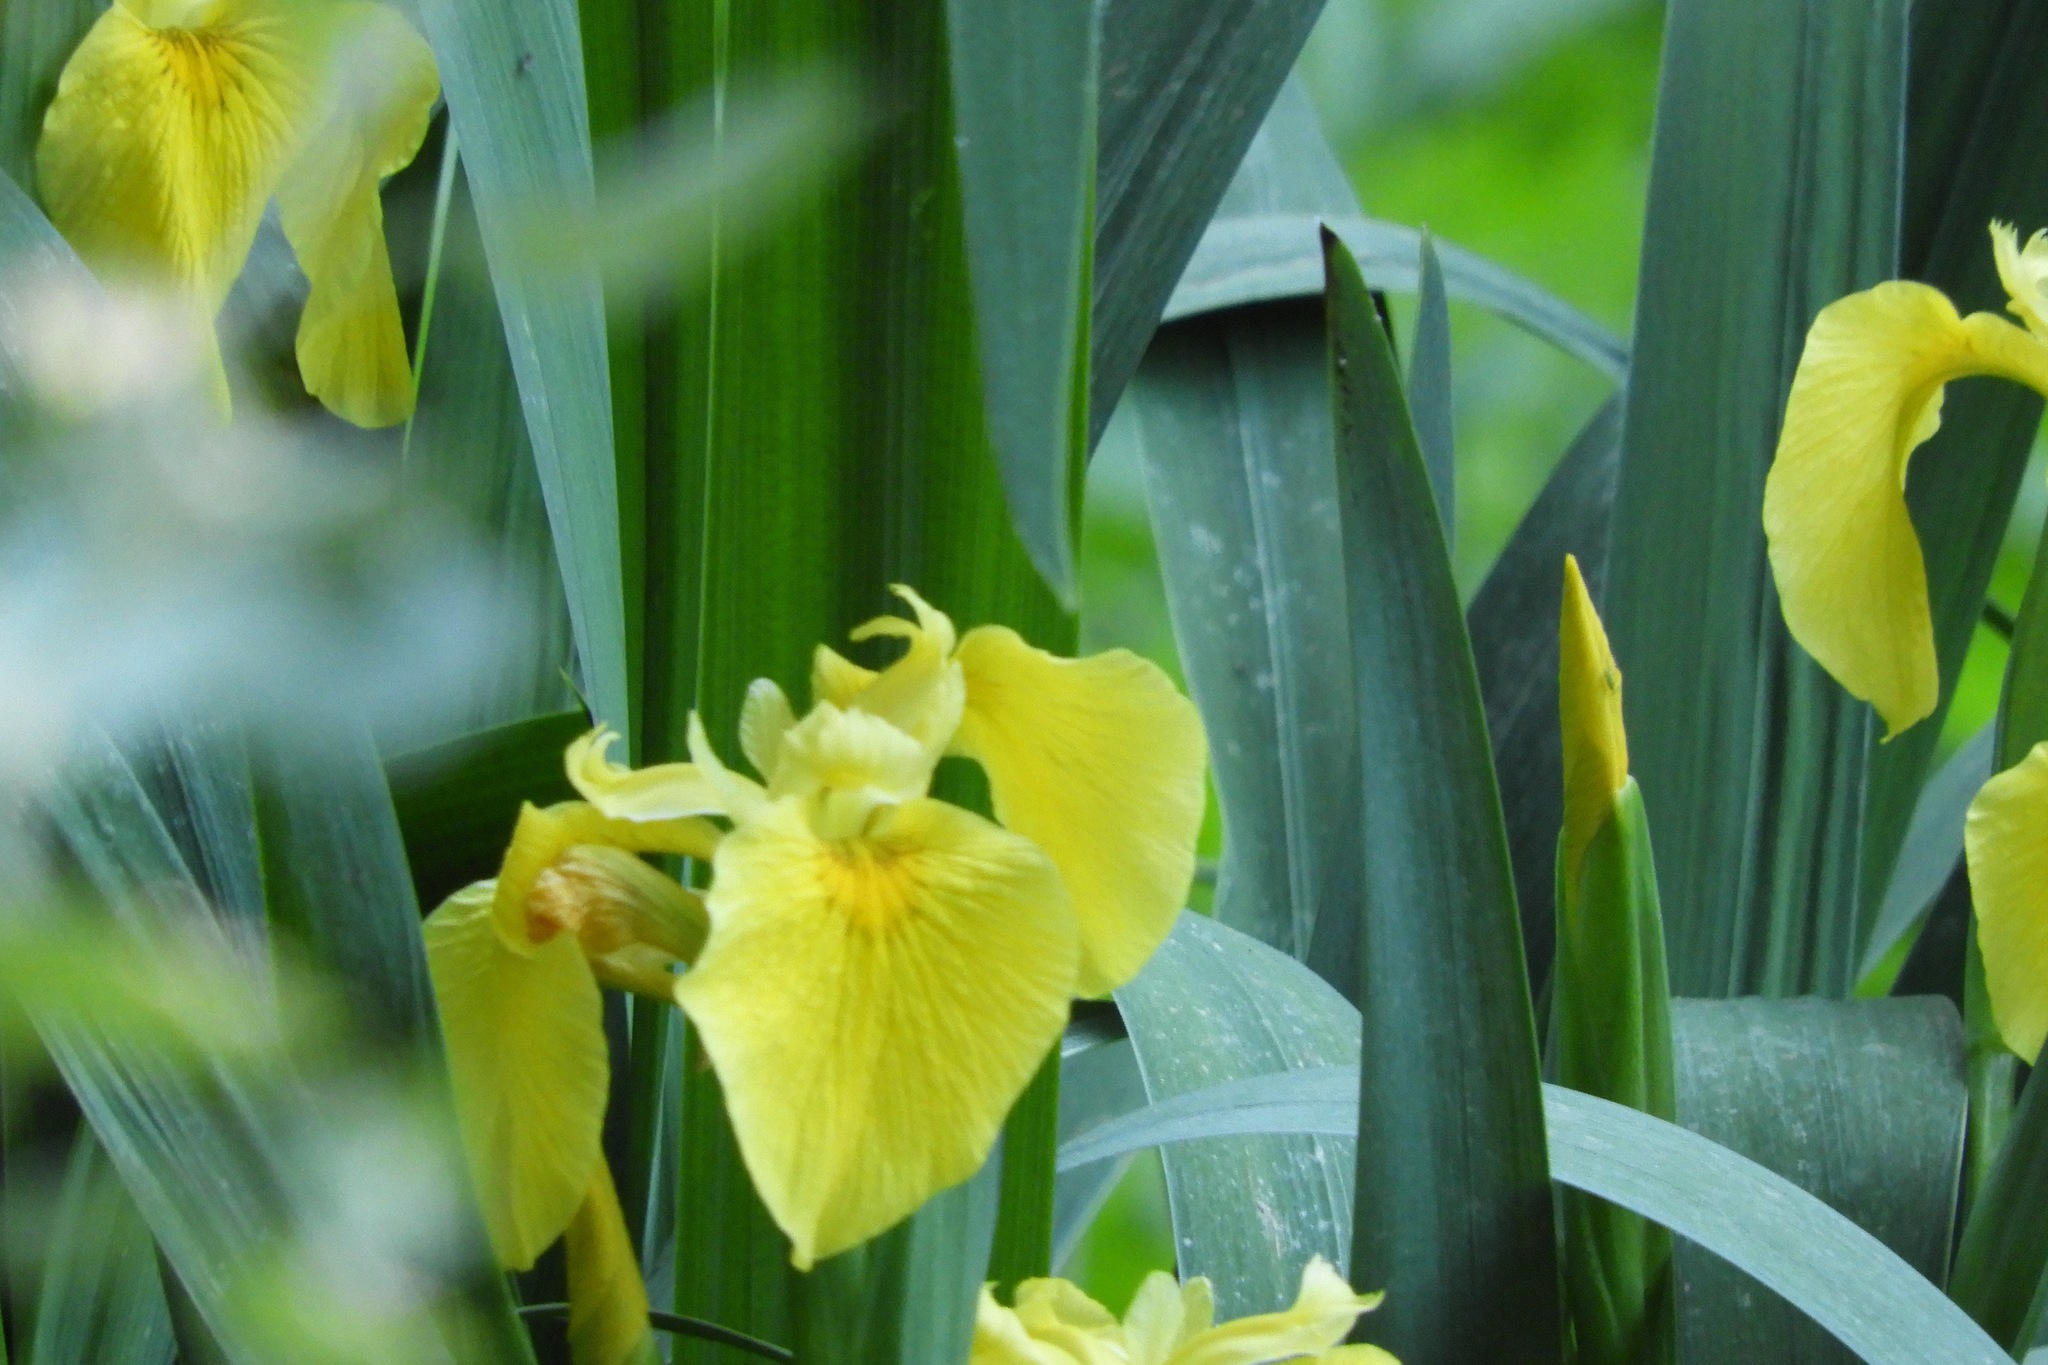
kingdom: Plantae
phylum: Tracheophyta
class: Liliopsida
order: Asparagales
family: Iridaceae
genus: Iris
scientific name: Iris pseudacorus
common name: Yellow flag
